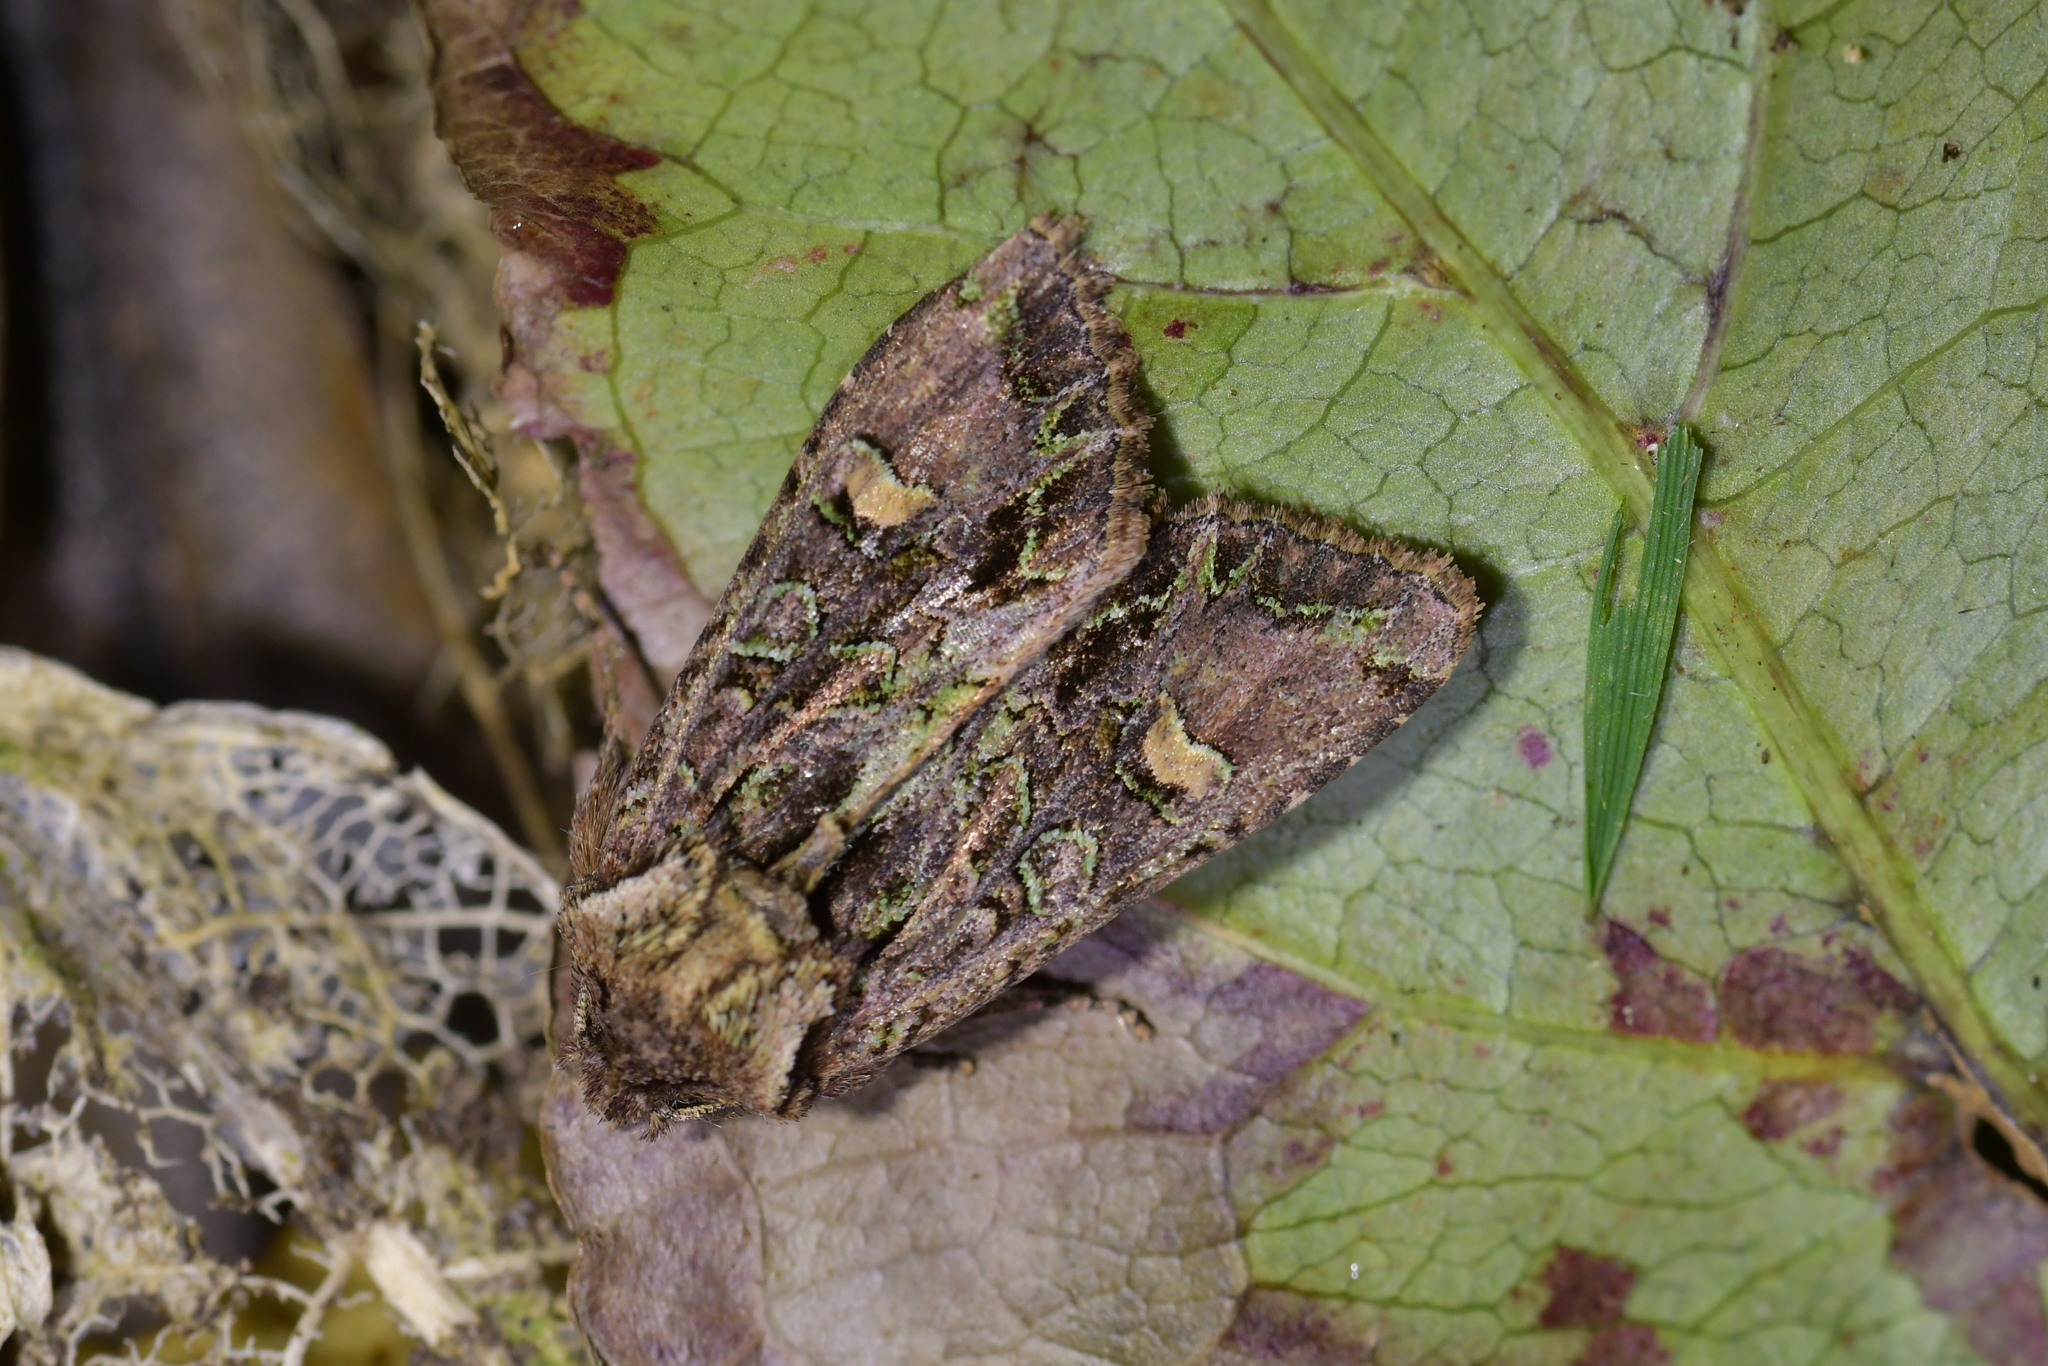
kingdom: Animalia
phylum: Arthropoda
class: Insecta
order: Lepidoptera
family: Noctuidae
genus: Ichneutica
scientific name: Ichneutica insignis
